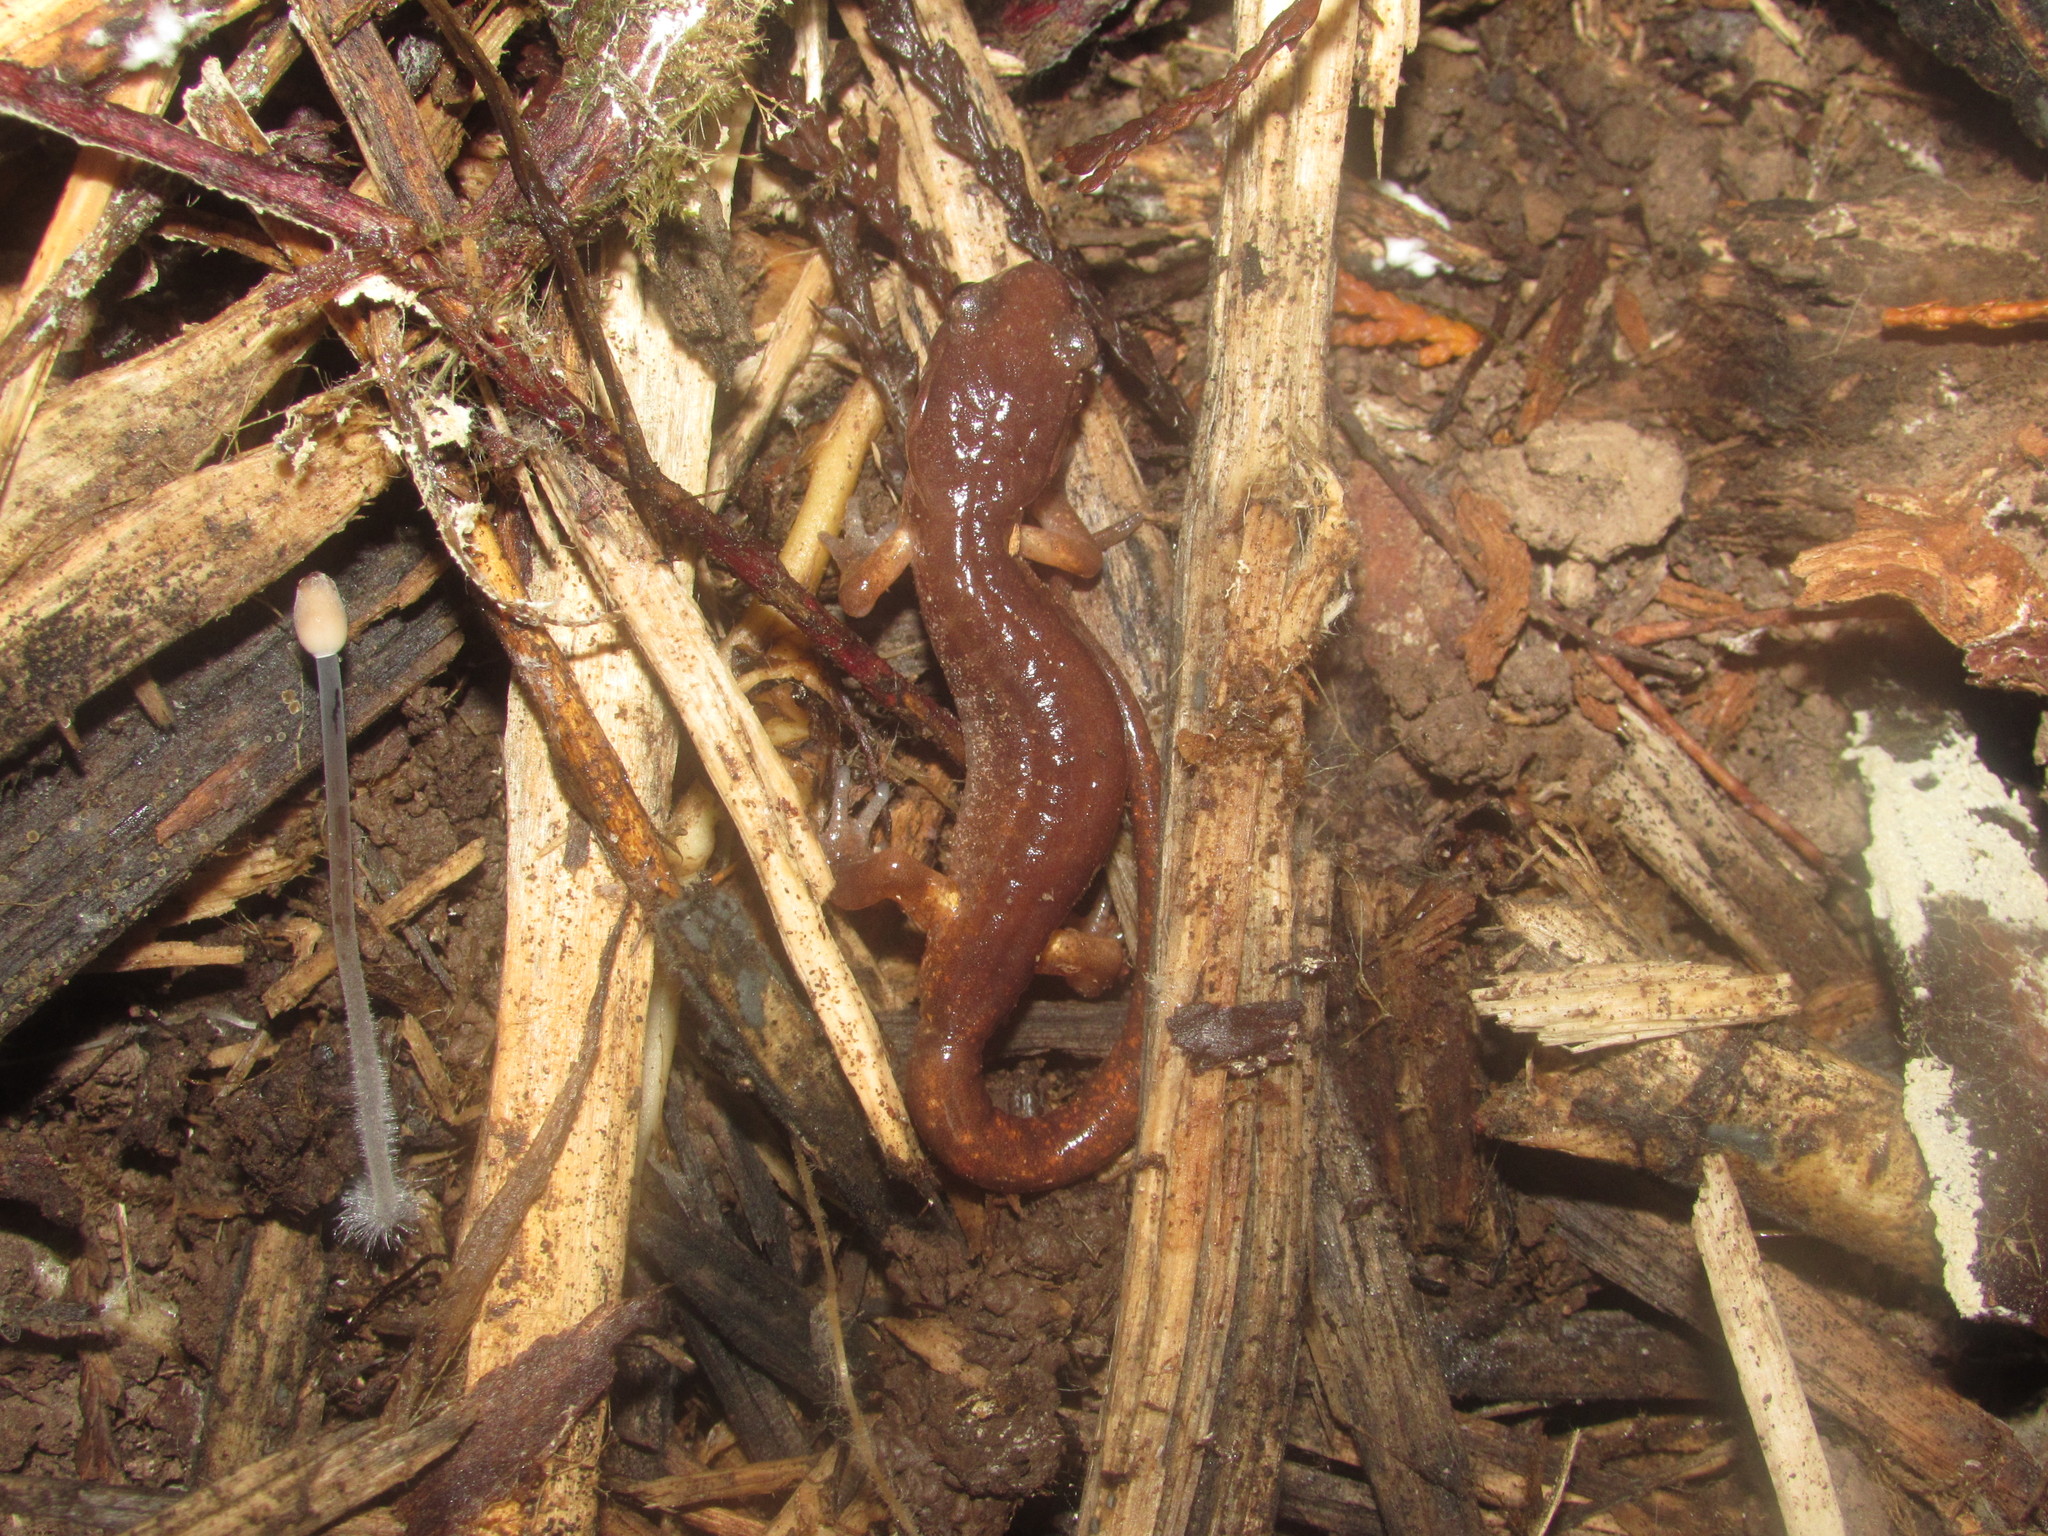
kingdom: Animalia
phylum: Chordata
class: Amphibia
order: Caudata
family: Plethodontidae
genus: Ensatina
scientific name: Ensatina eschscholtzii
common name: Ensatina
